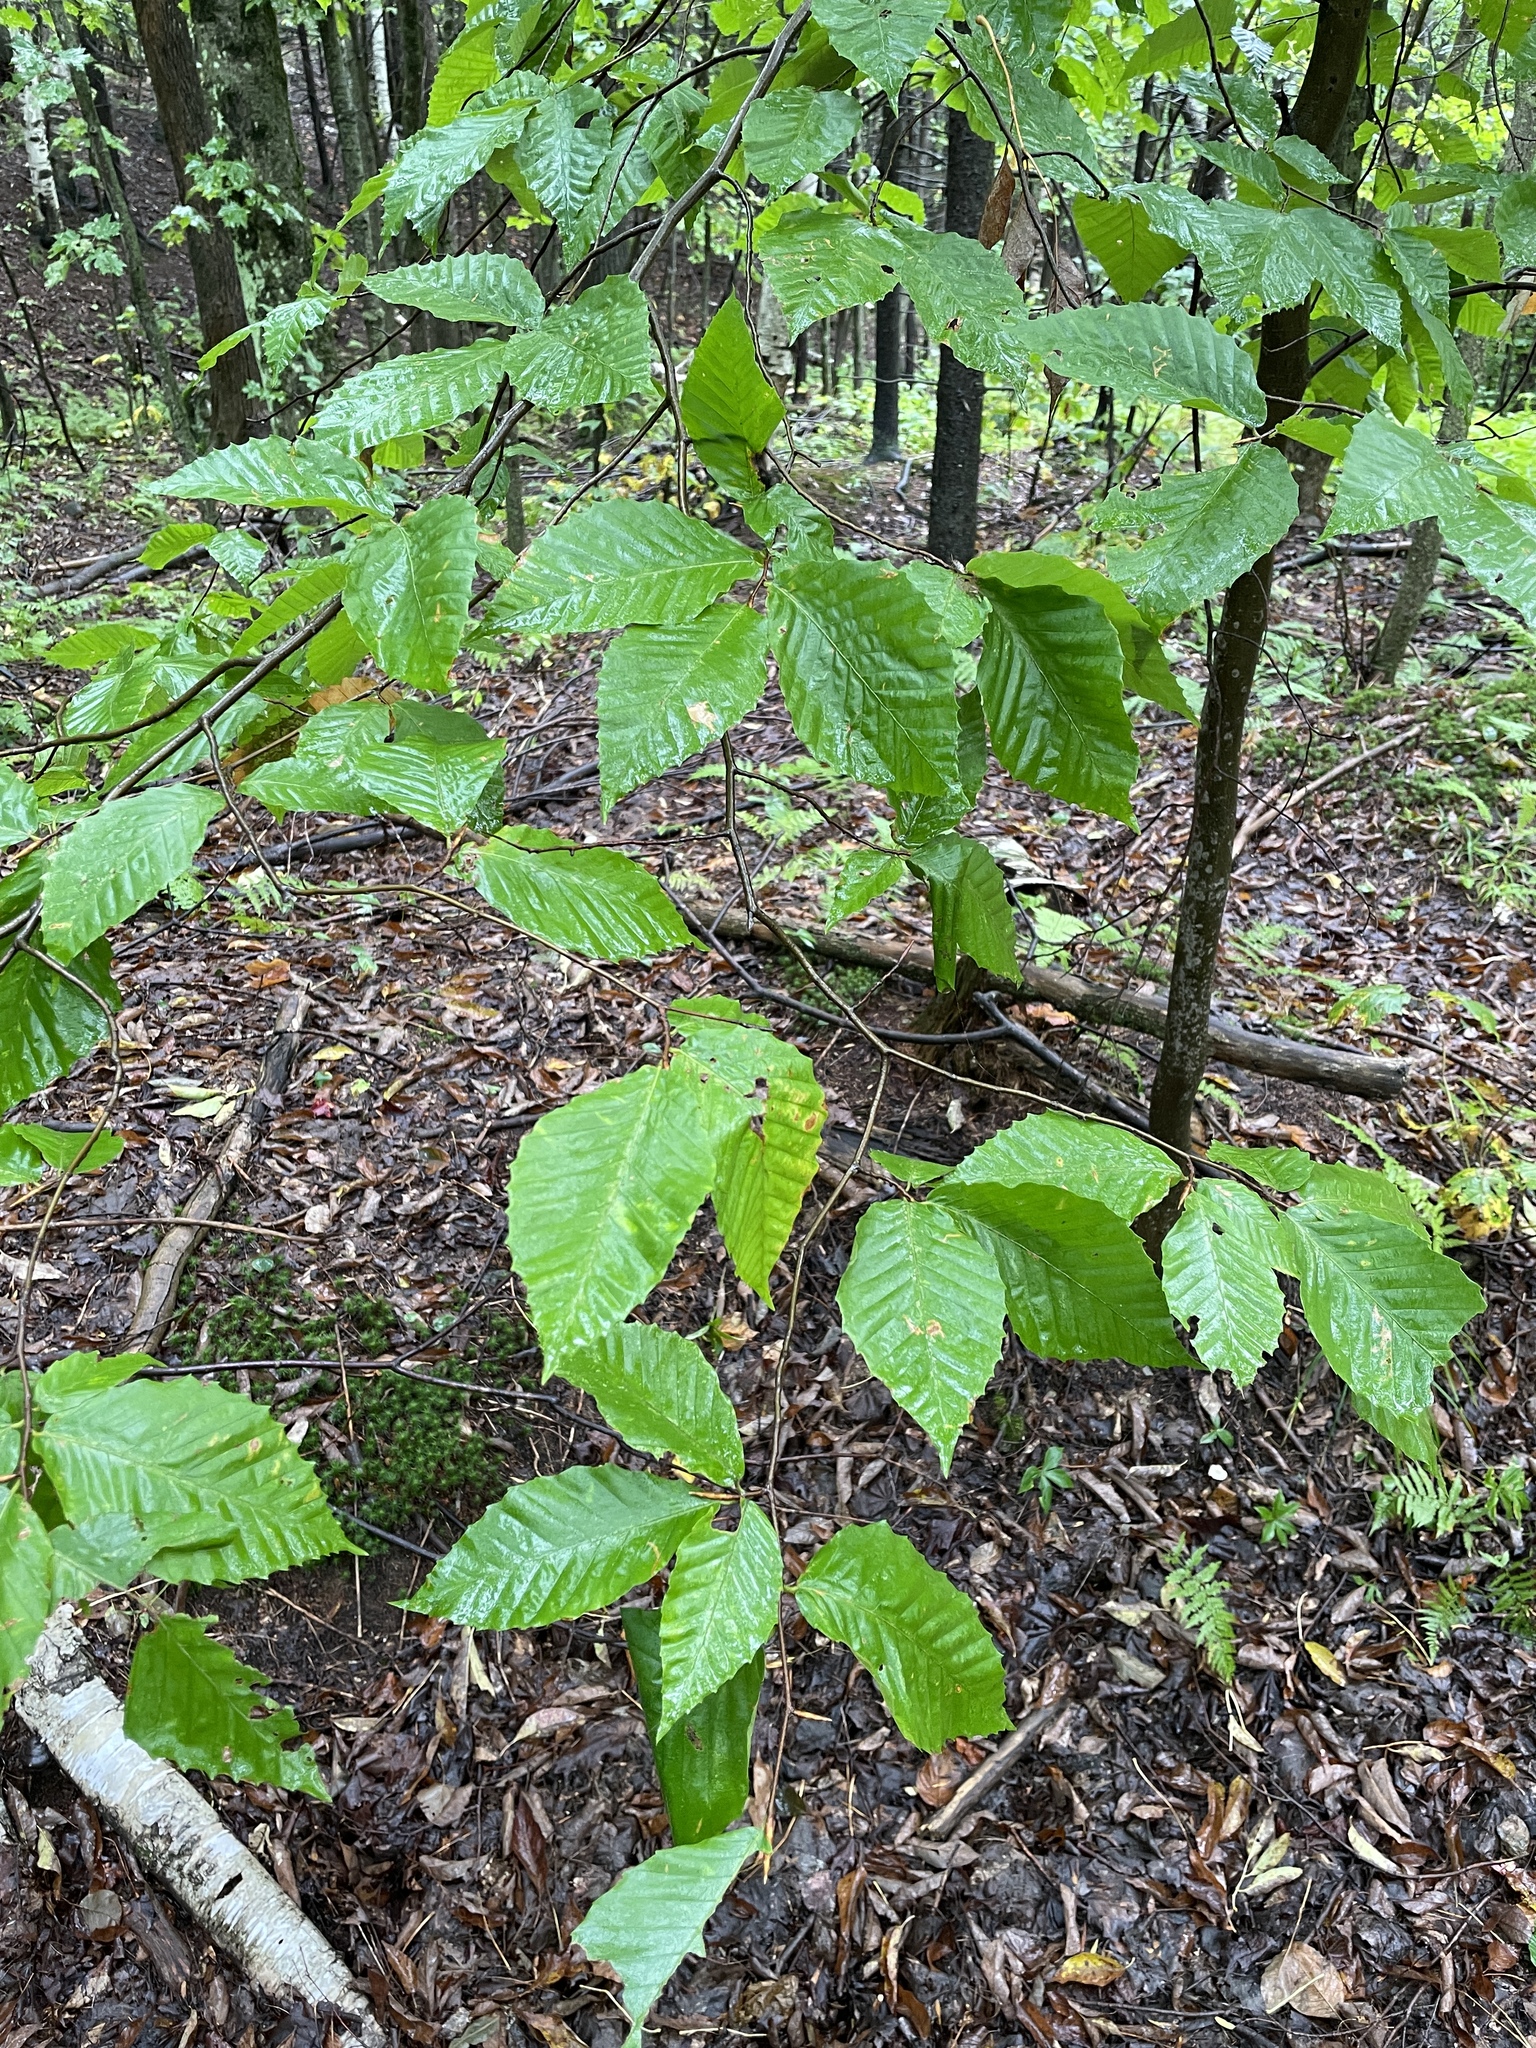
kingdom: Plantae
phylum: Tracheophyta
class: Magnoliopsida
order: Fagales
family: Fagaceae
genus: Fagus
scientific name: Fagus grandifolia
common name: American beech
